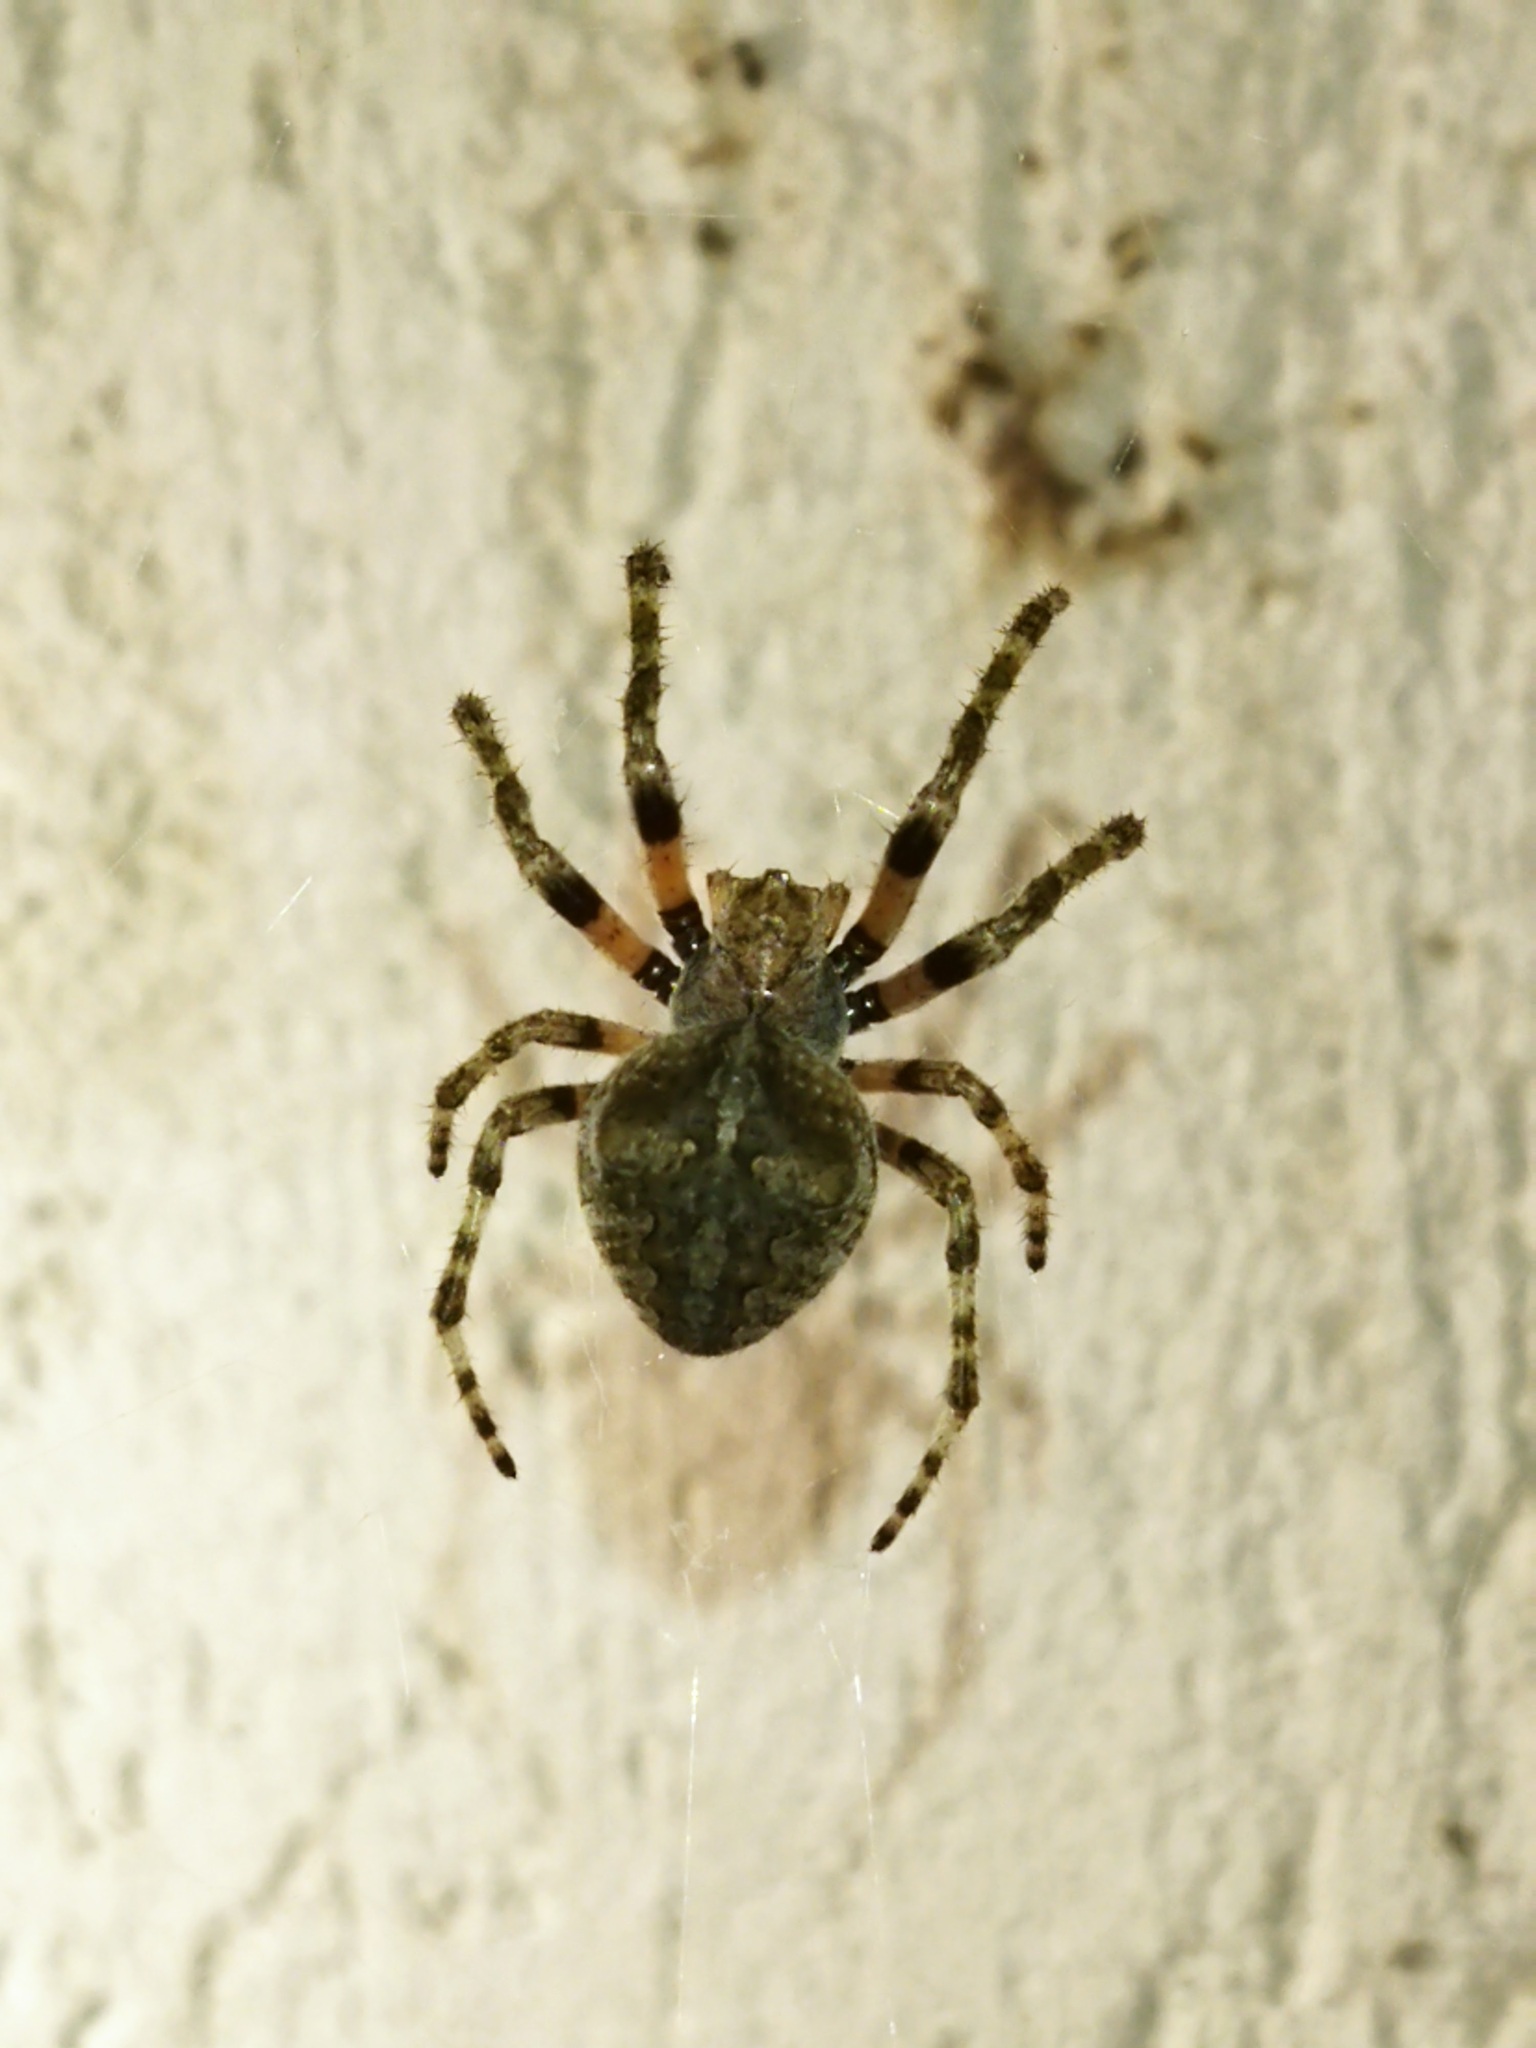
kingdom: Animalia
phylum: Arthropoda
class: Arachnida
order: Araneae
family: Araneidae
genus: Araneus
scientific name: Araneus angulatus
